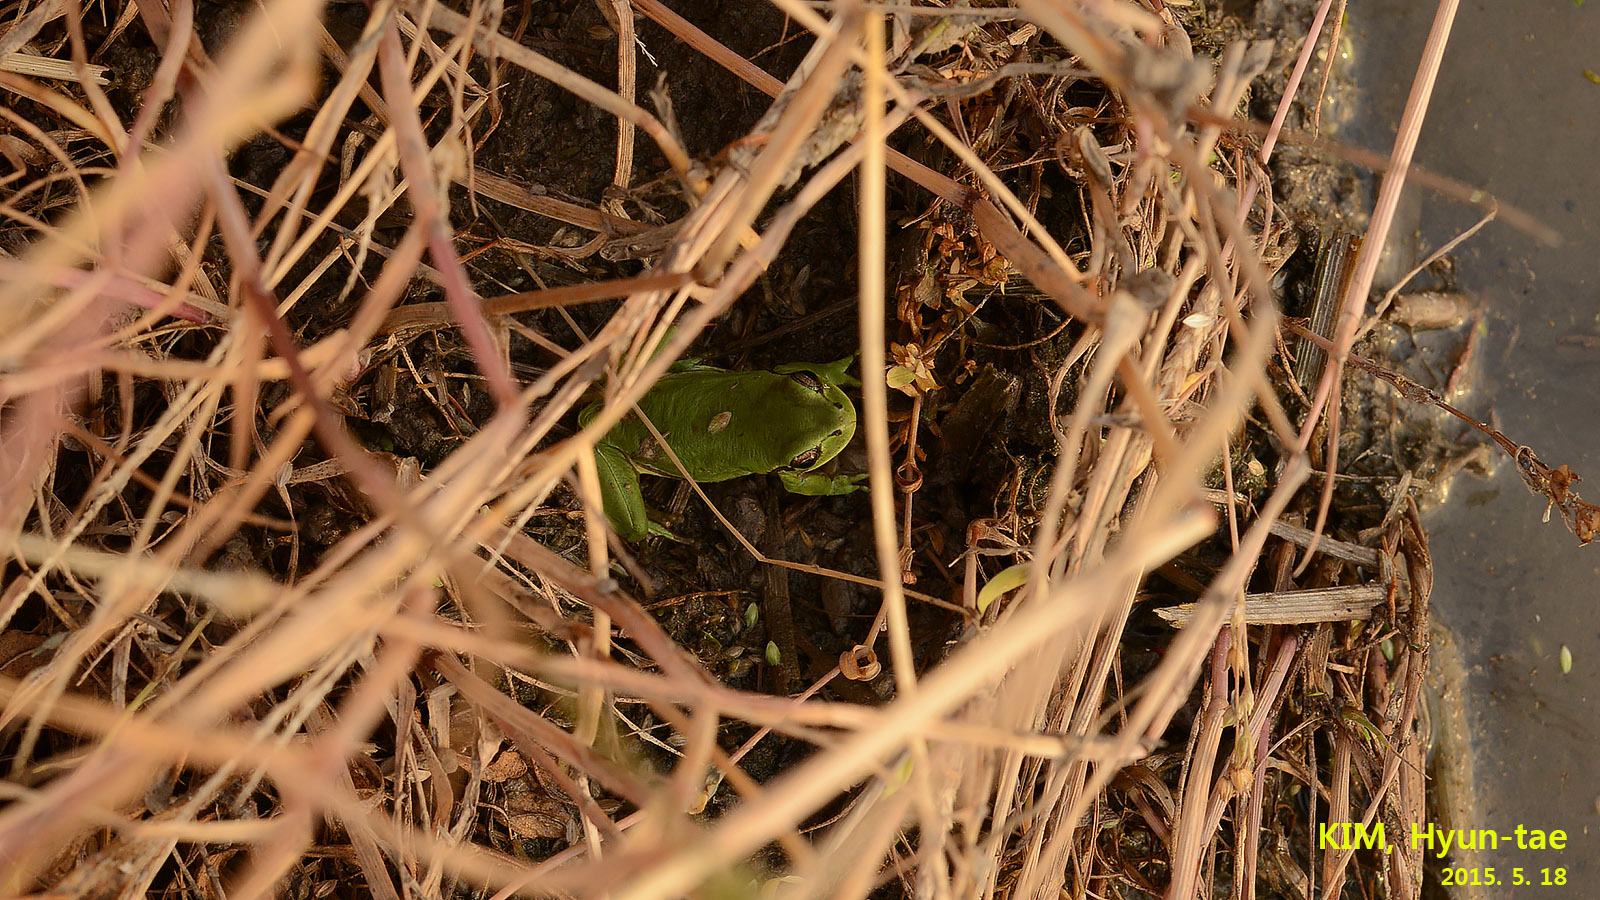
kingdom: Animalia
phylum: Chordata
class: Amphibia
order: Anura
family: Hylidae
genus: Hyla
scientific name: Hyla
